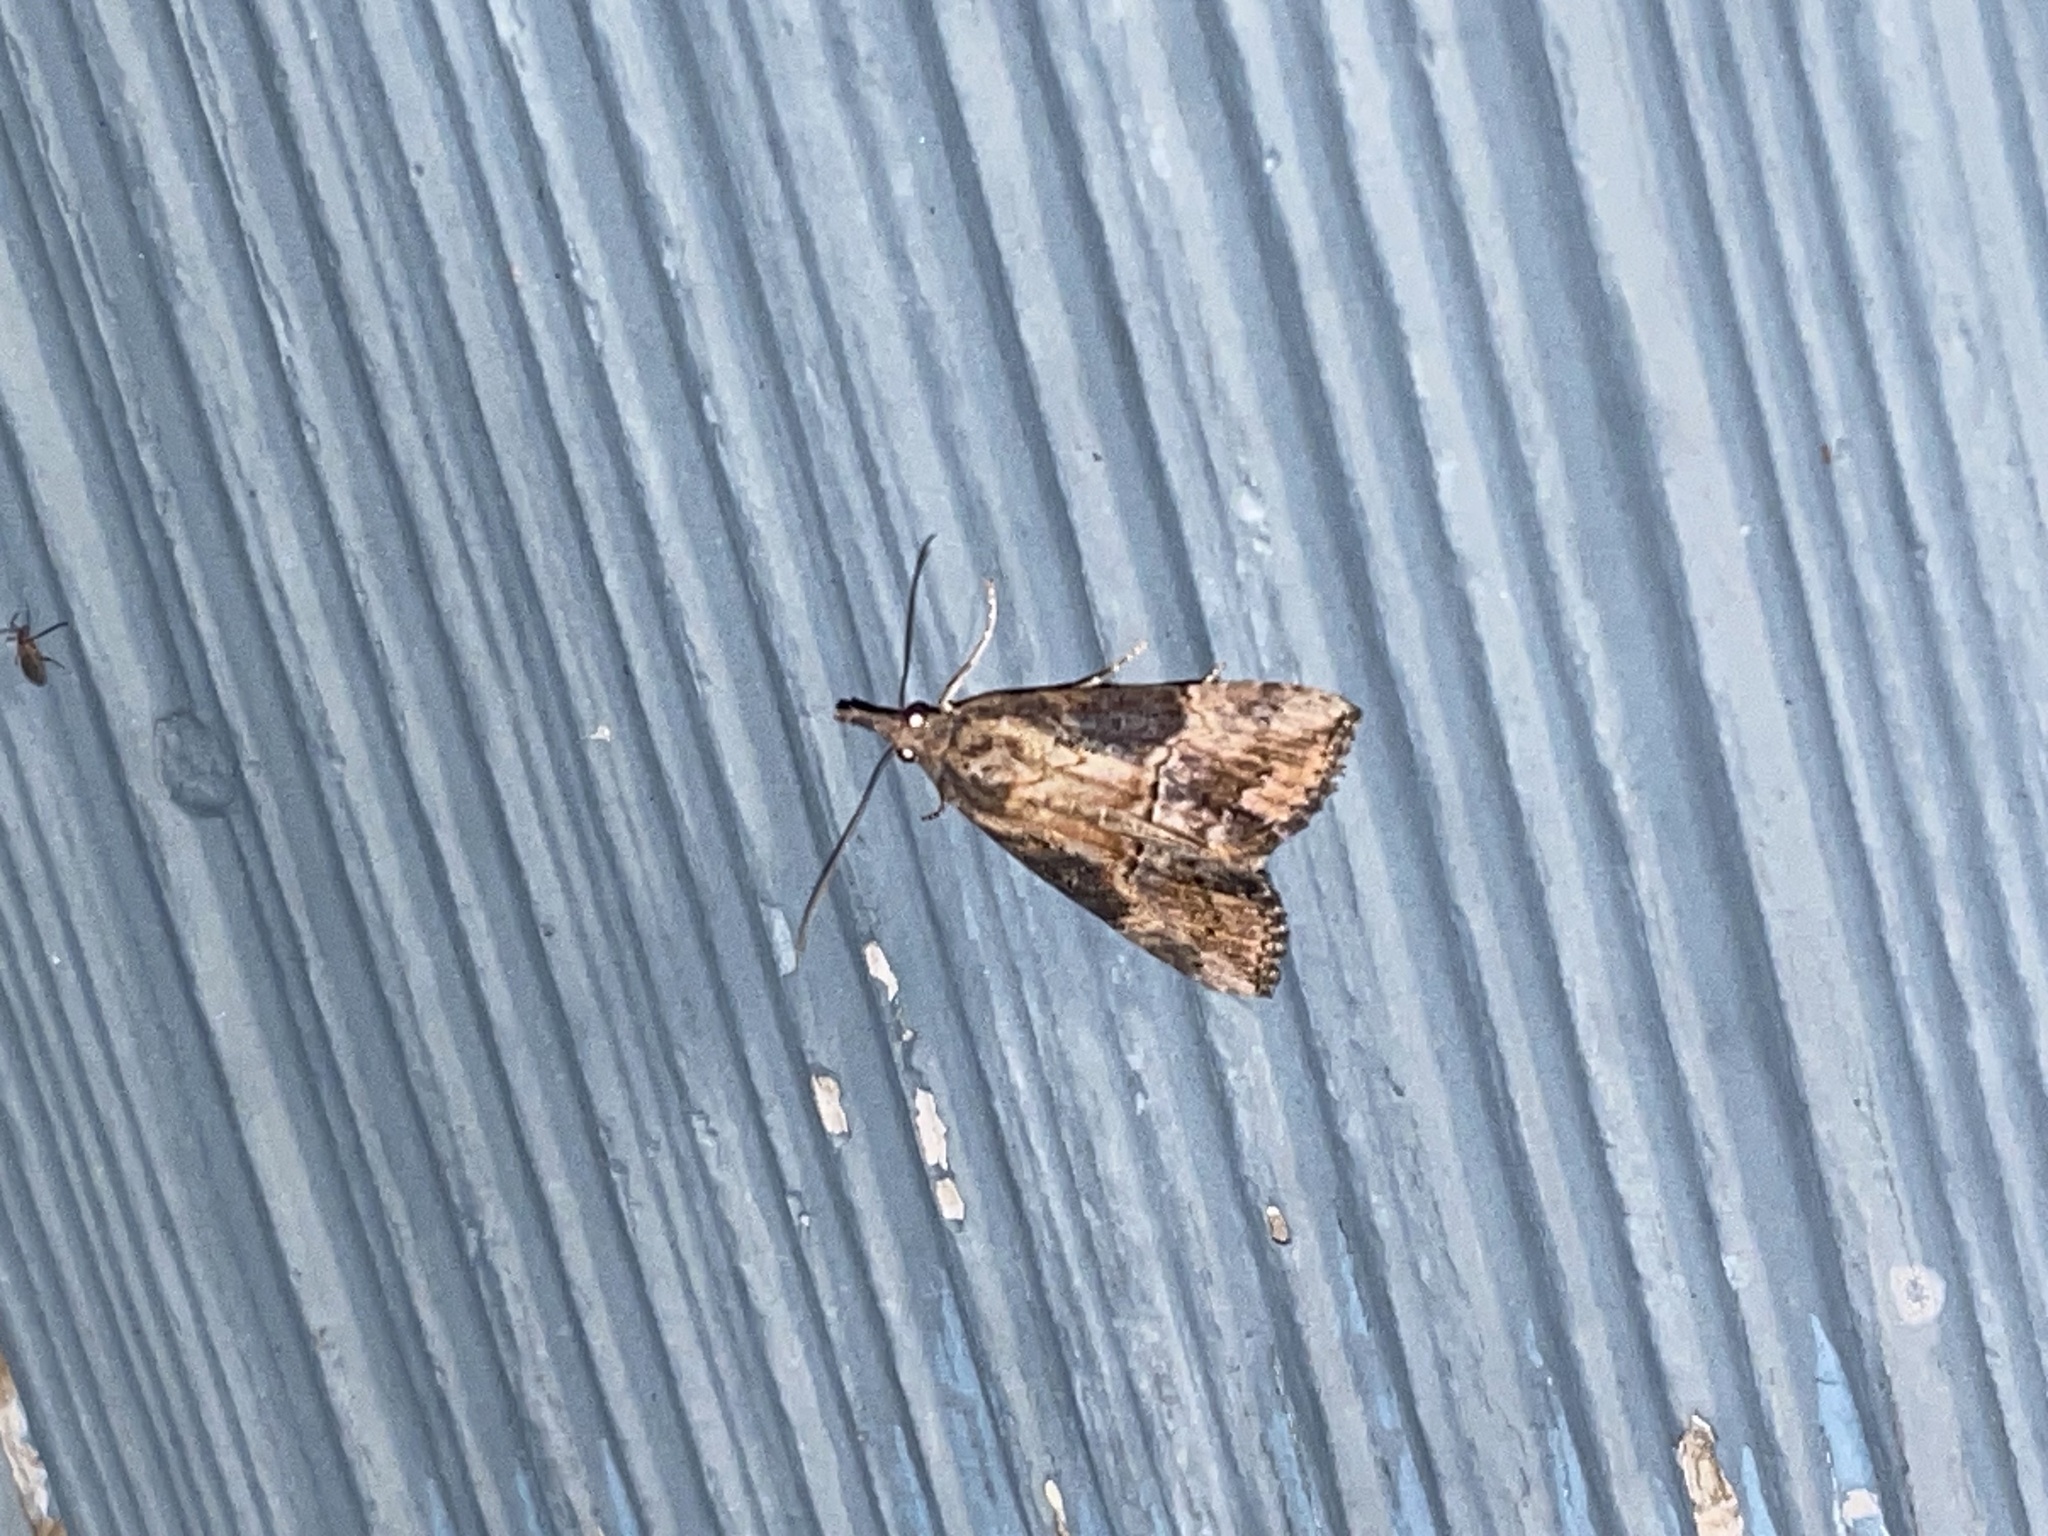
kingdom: Animalia
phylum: Arthropoda
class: Insecta
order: Lepidoptera
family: Erebidae
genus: Hypena
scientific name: Hypena scabra
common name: Green cloverworm
